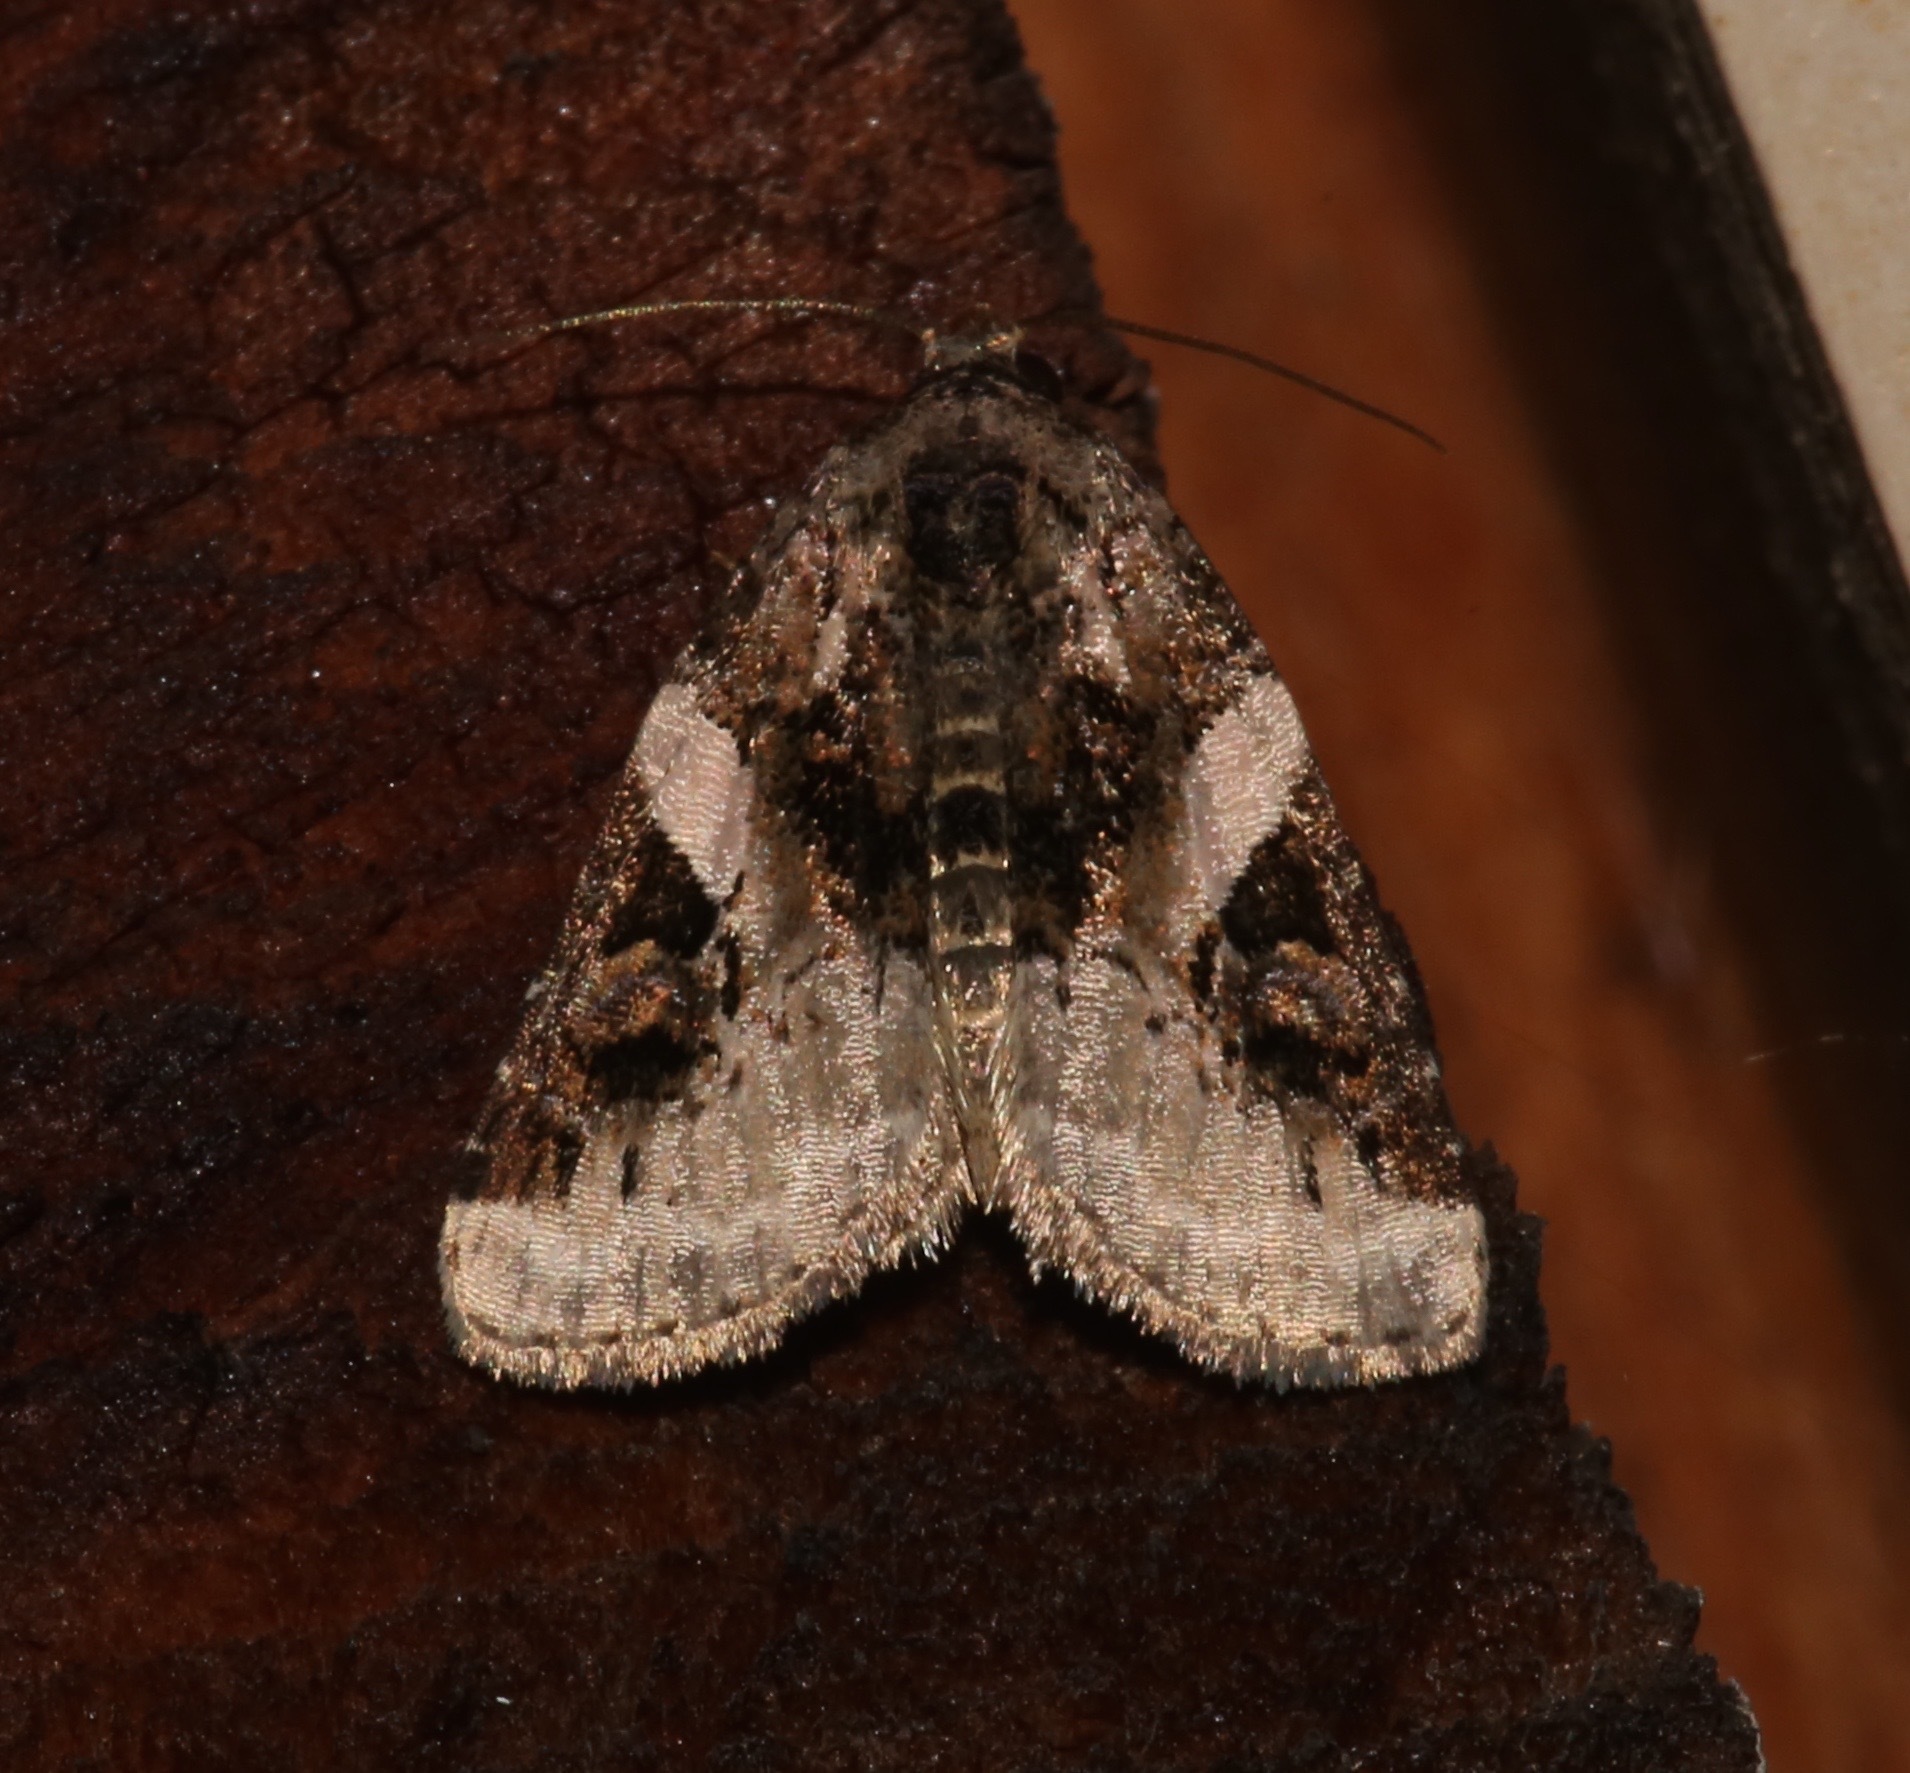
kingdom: Animalia
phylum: Arthropoda
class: Insecta
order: Lepidoptera
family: Noctuidae
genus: Pseudeustrotia
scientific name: Pseudeustrotia carneola
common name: Pink-barred lithacodia moth
